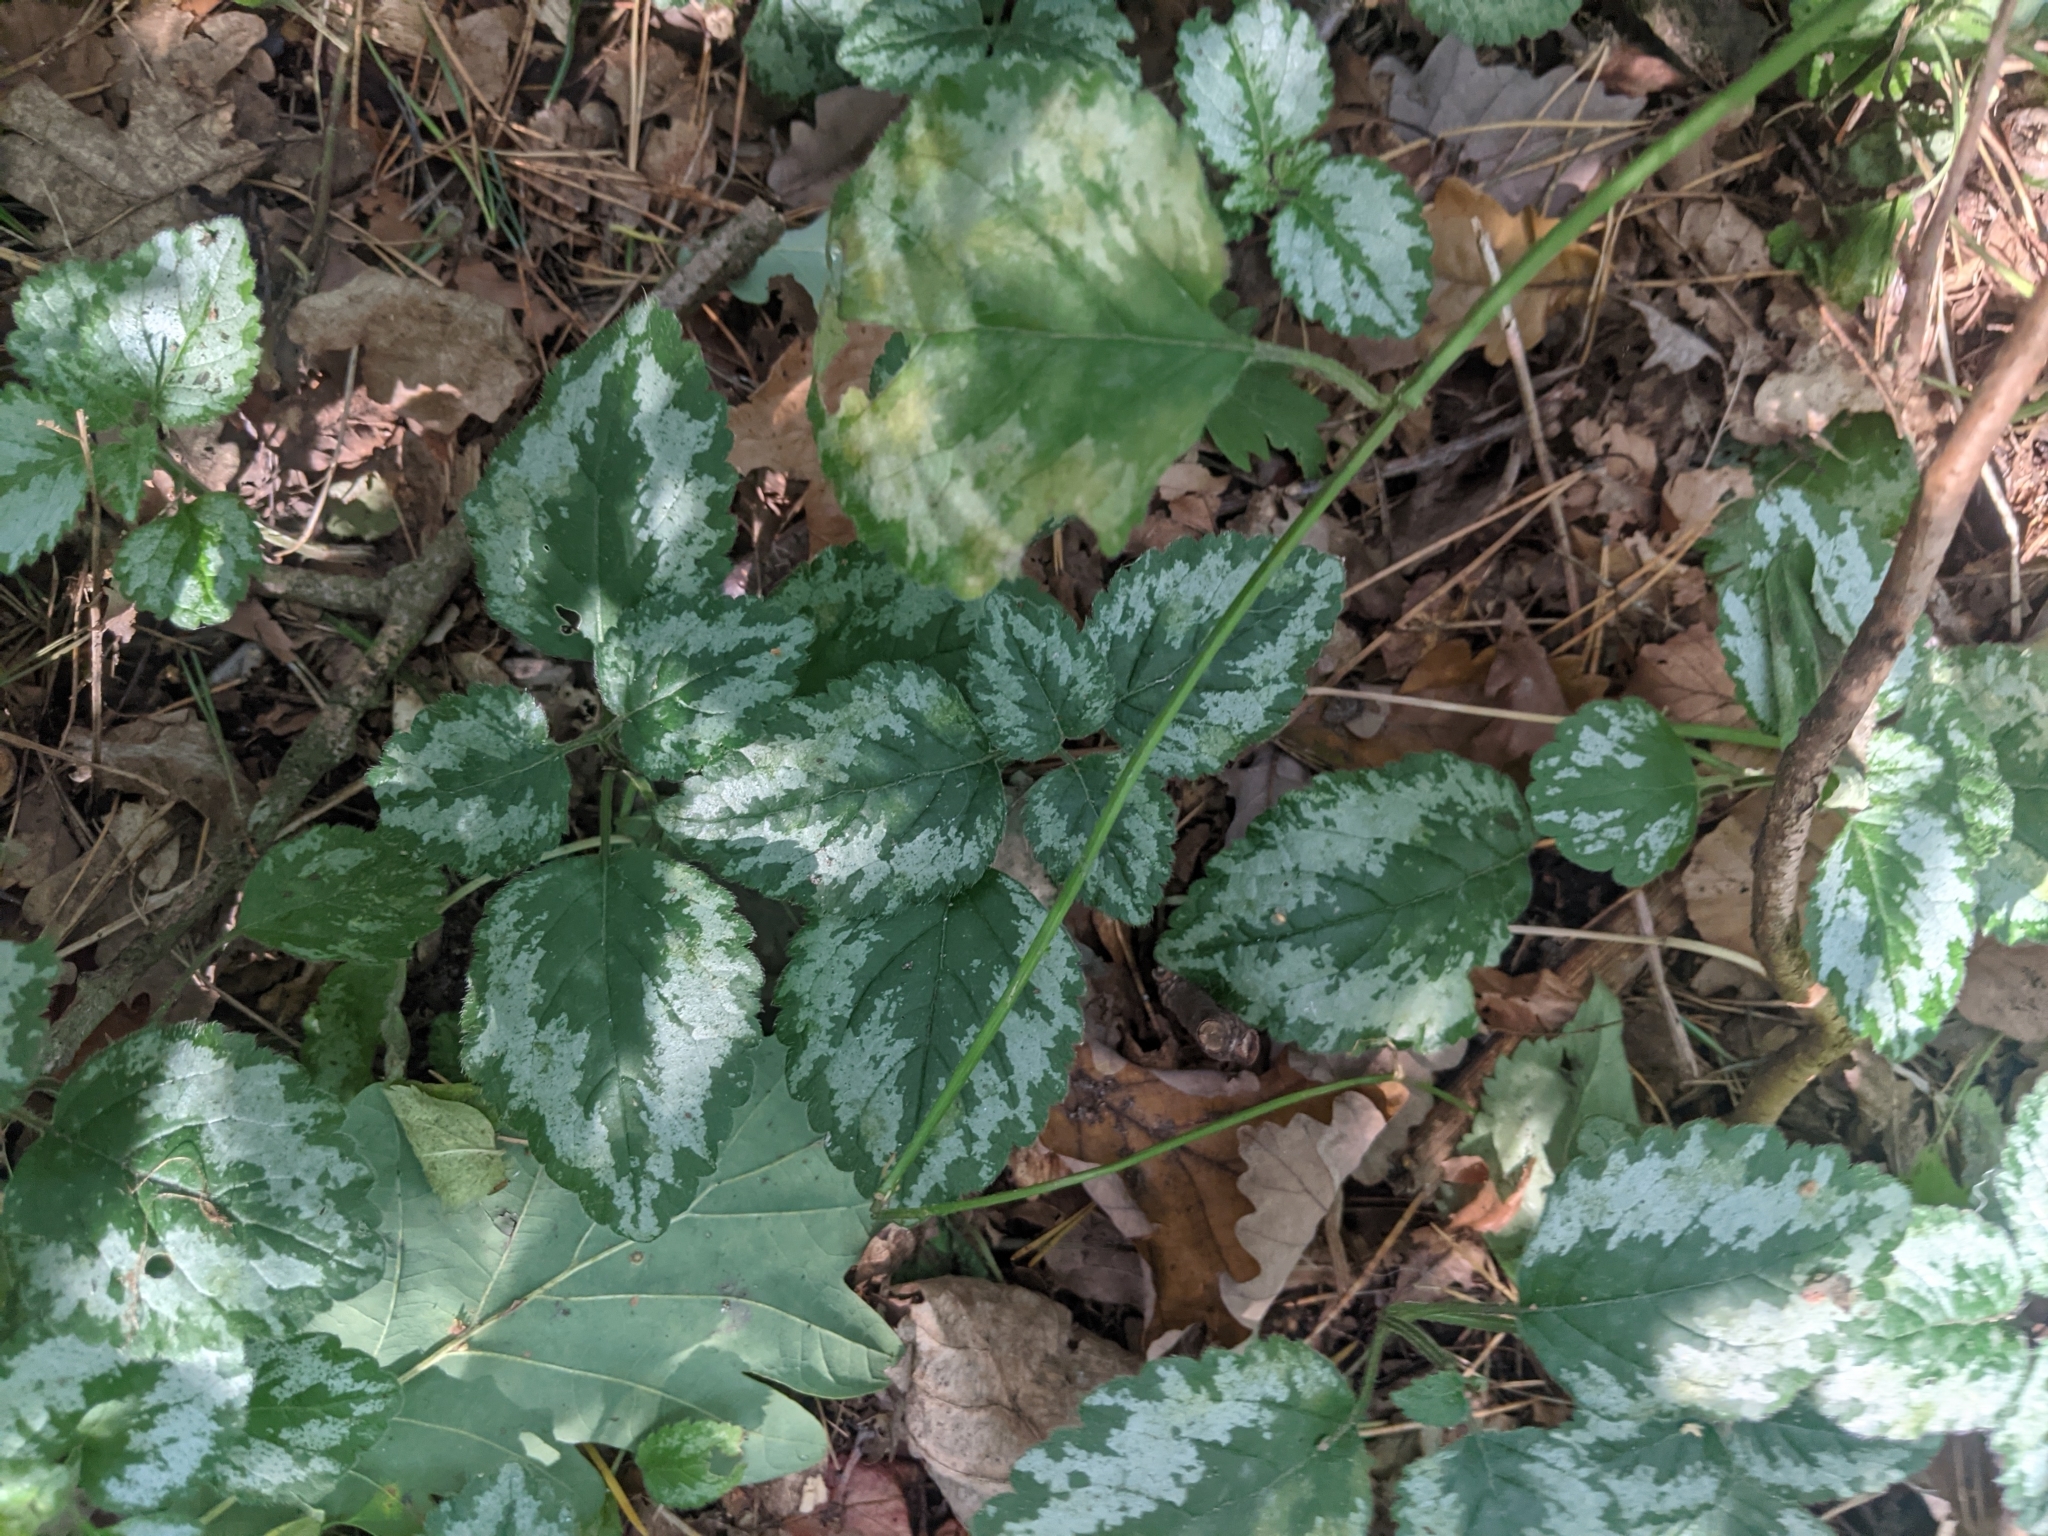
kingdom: Plantae
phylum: Tracheophyta
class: Magnoliopsida
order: Lamiales
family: Lamiaceae
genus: Lamium
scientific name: Lamium galeobdolon
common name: Yellow archangel
